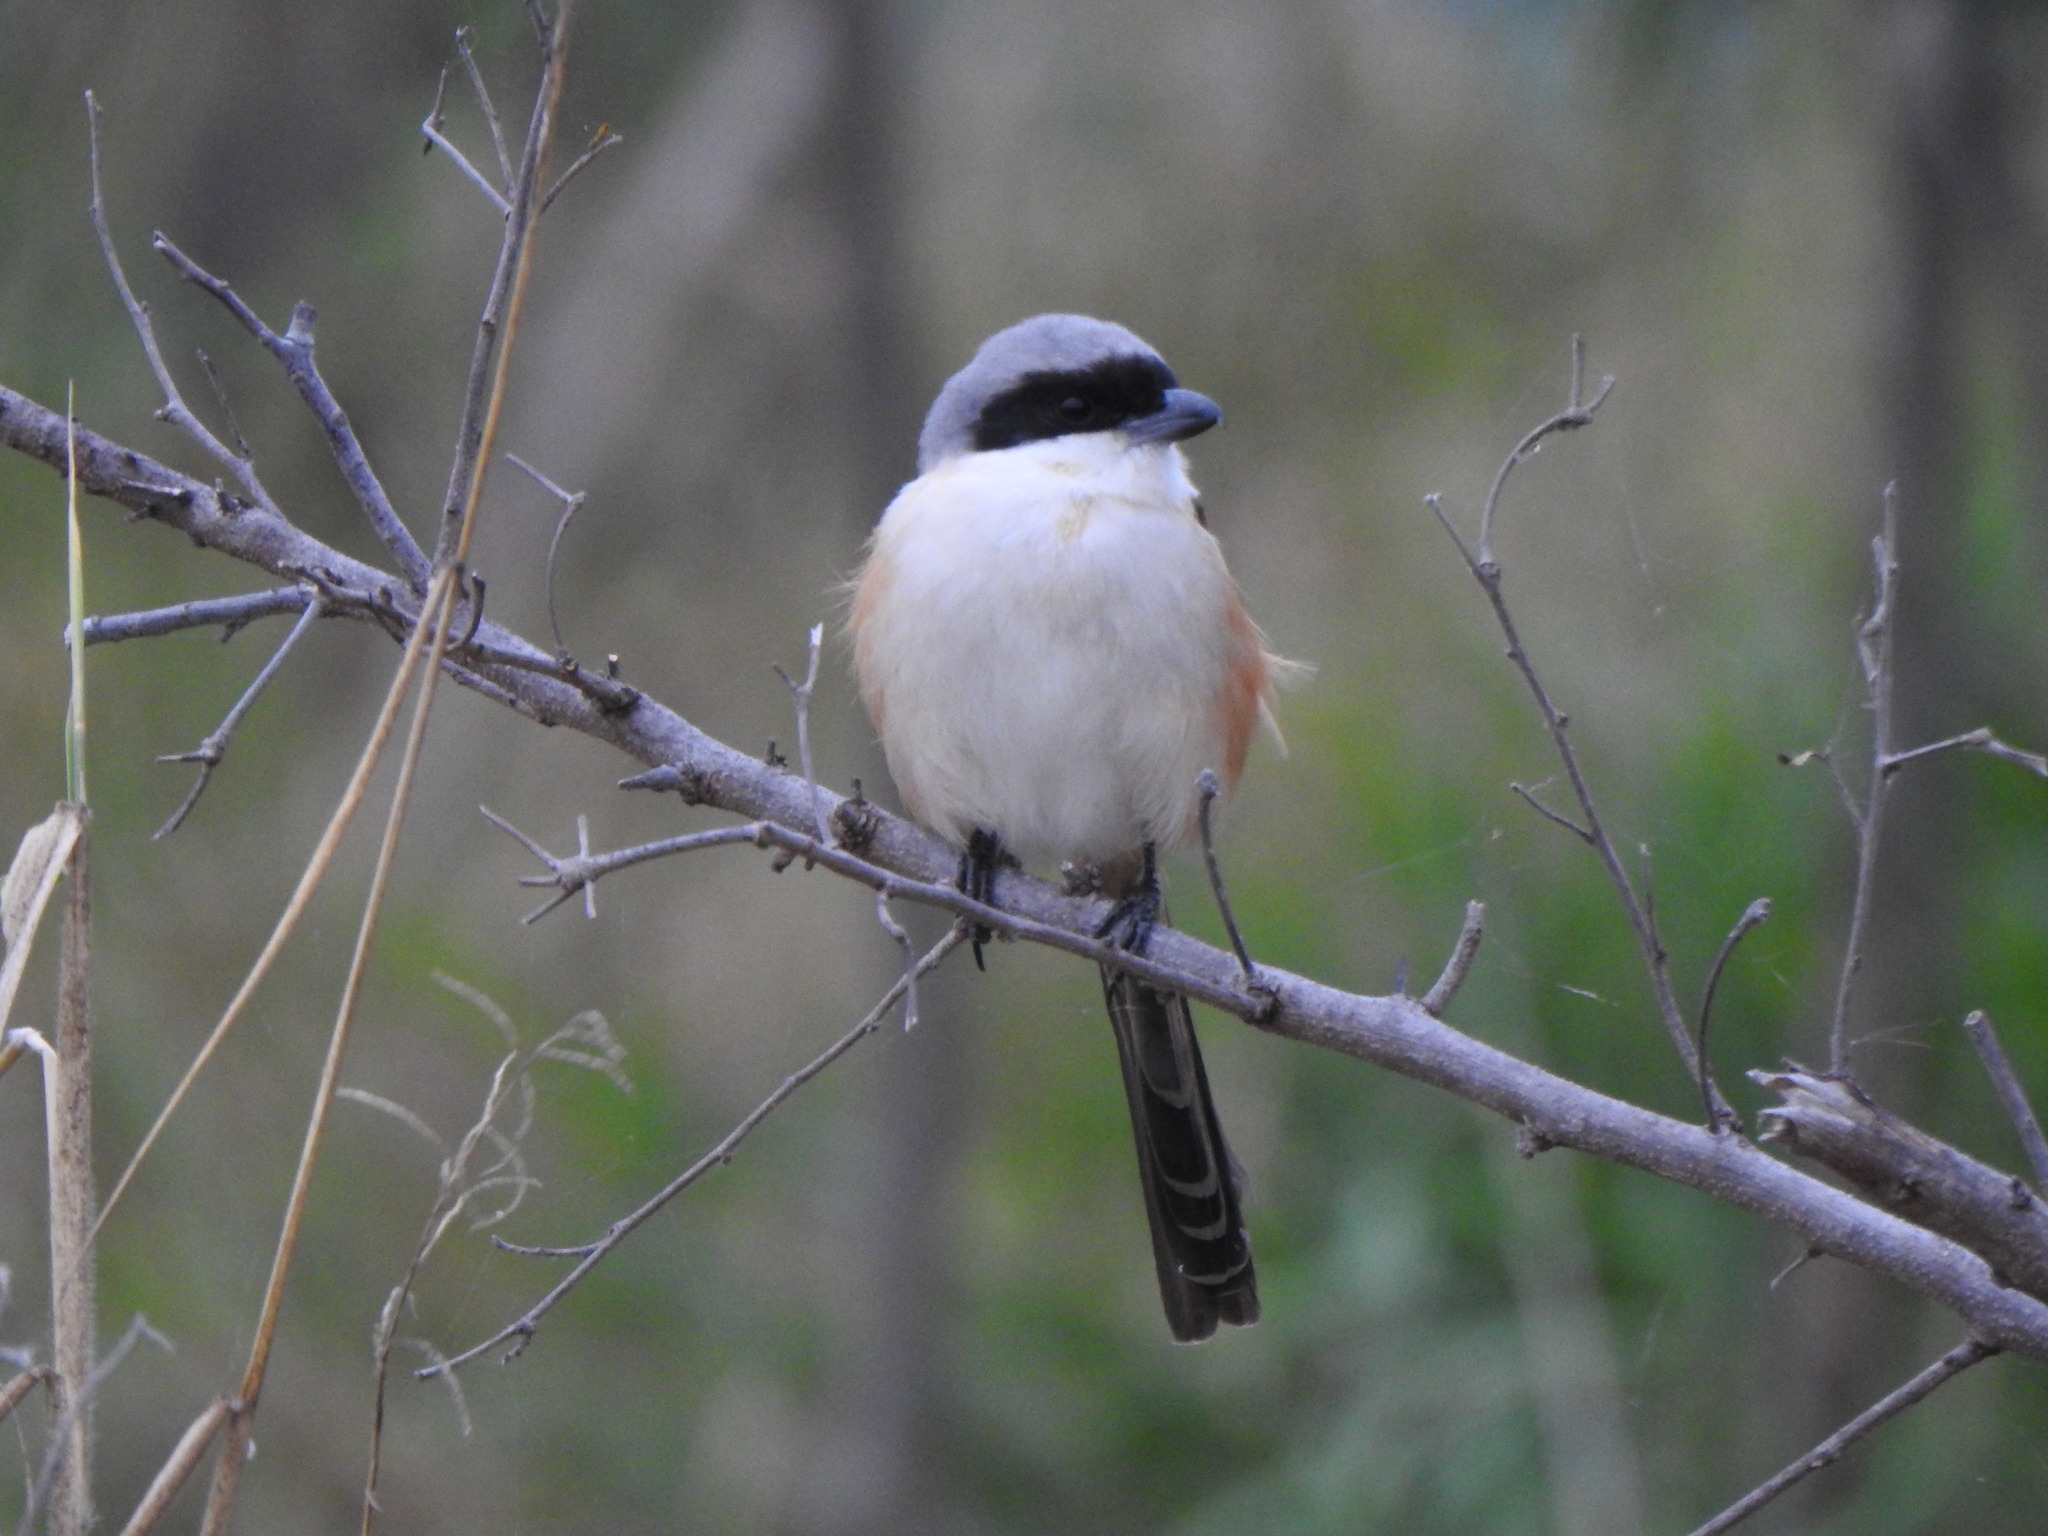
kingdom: Animalia
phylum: Chordata
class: Aves
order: Passeriformes
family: Laniidae
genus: Lanius
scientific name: Lanius schach
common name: Long-tailed shrike
